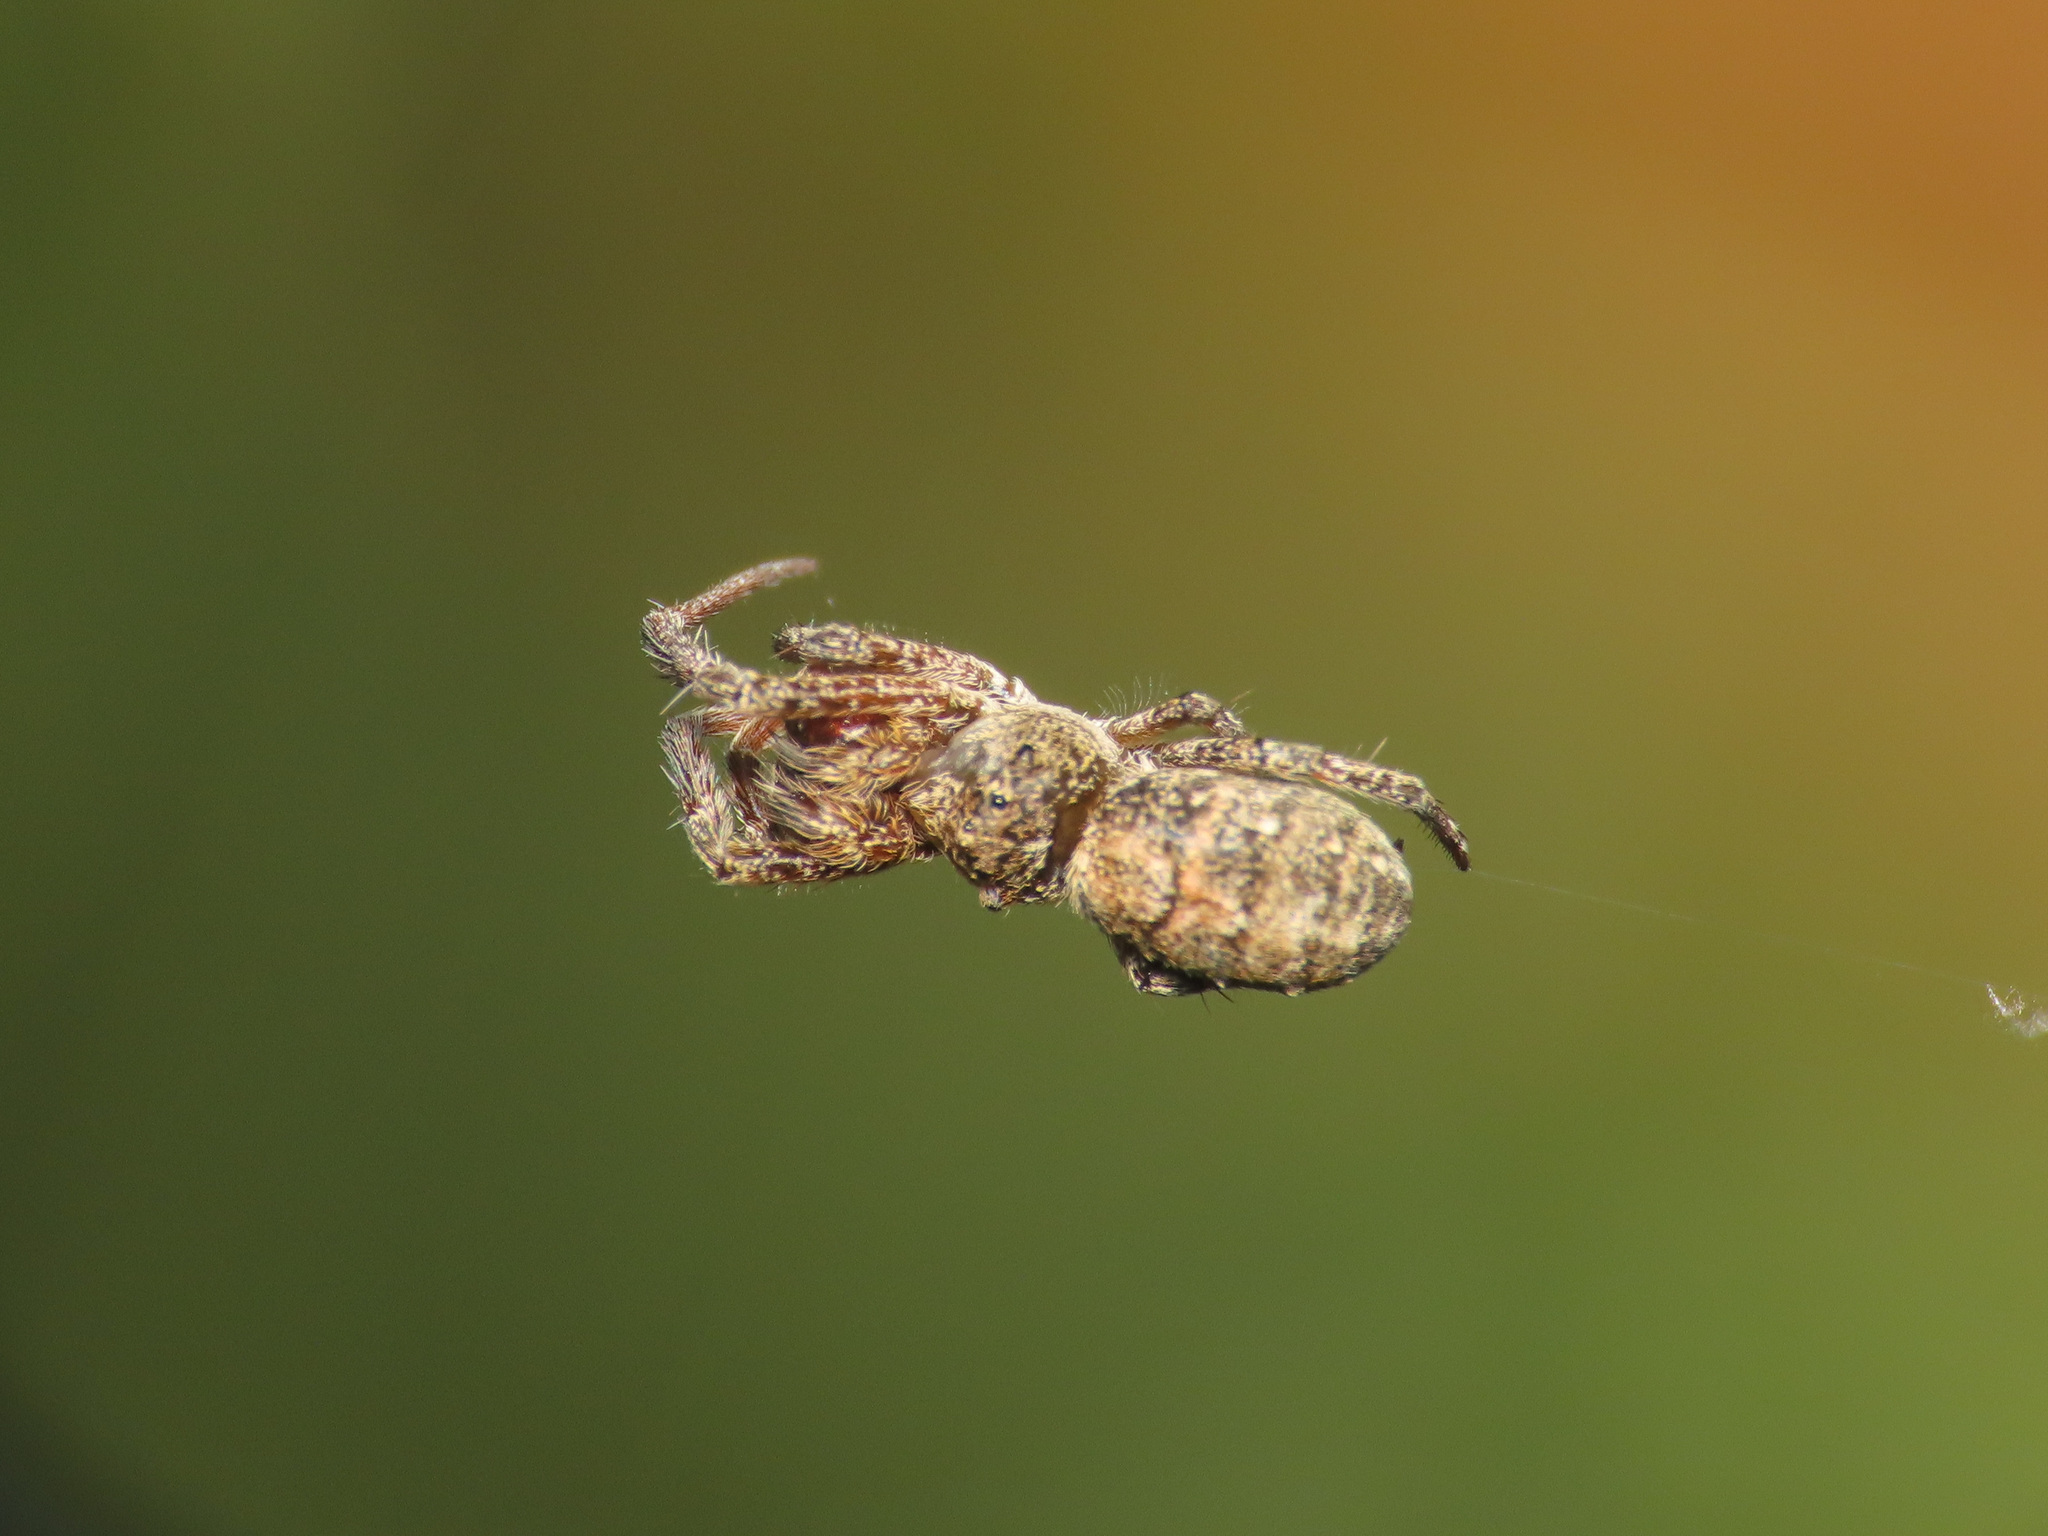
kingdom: Animalia
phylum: Arthropoda
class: Arachnida
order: Araneae
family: Uloboridae
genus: Hyptiotes
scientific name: Hyptiotes paradoxus
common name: Triangle spider
